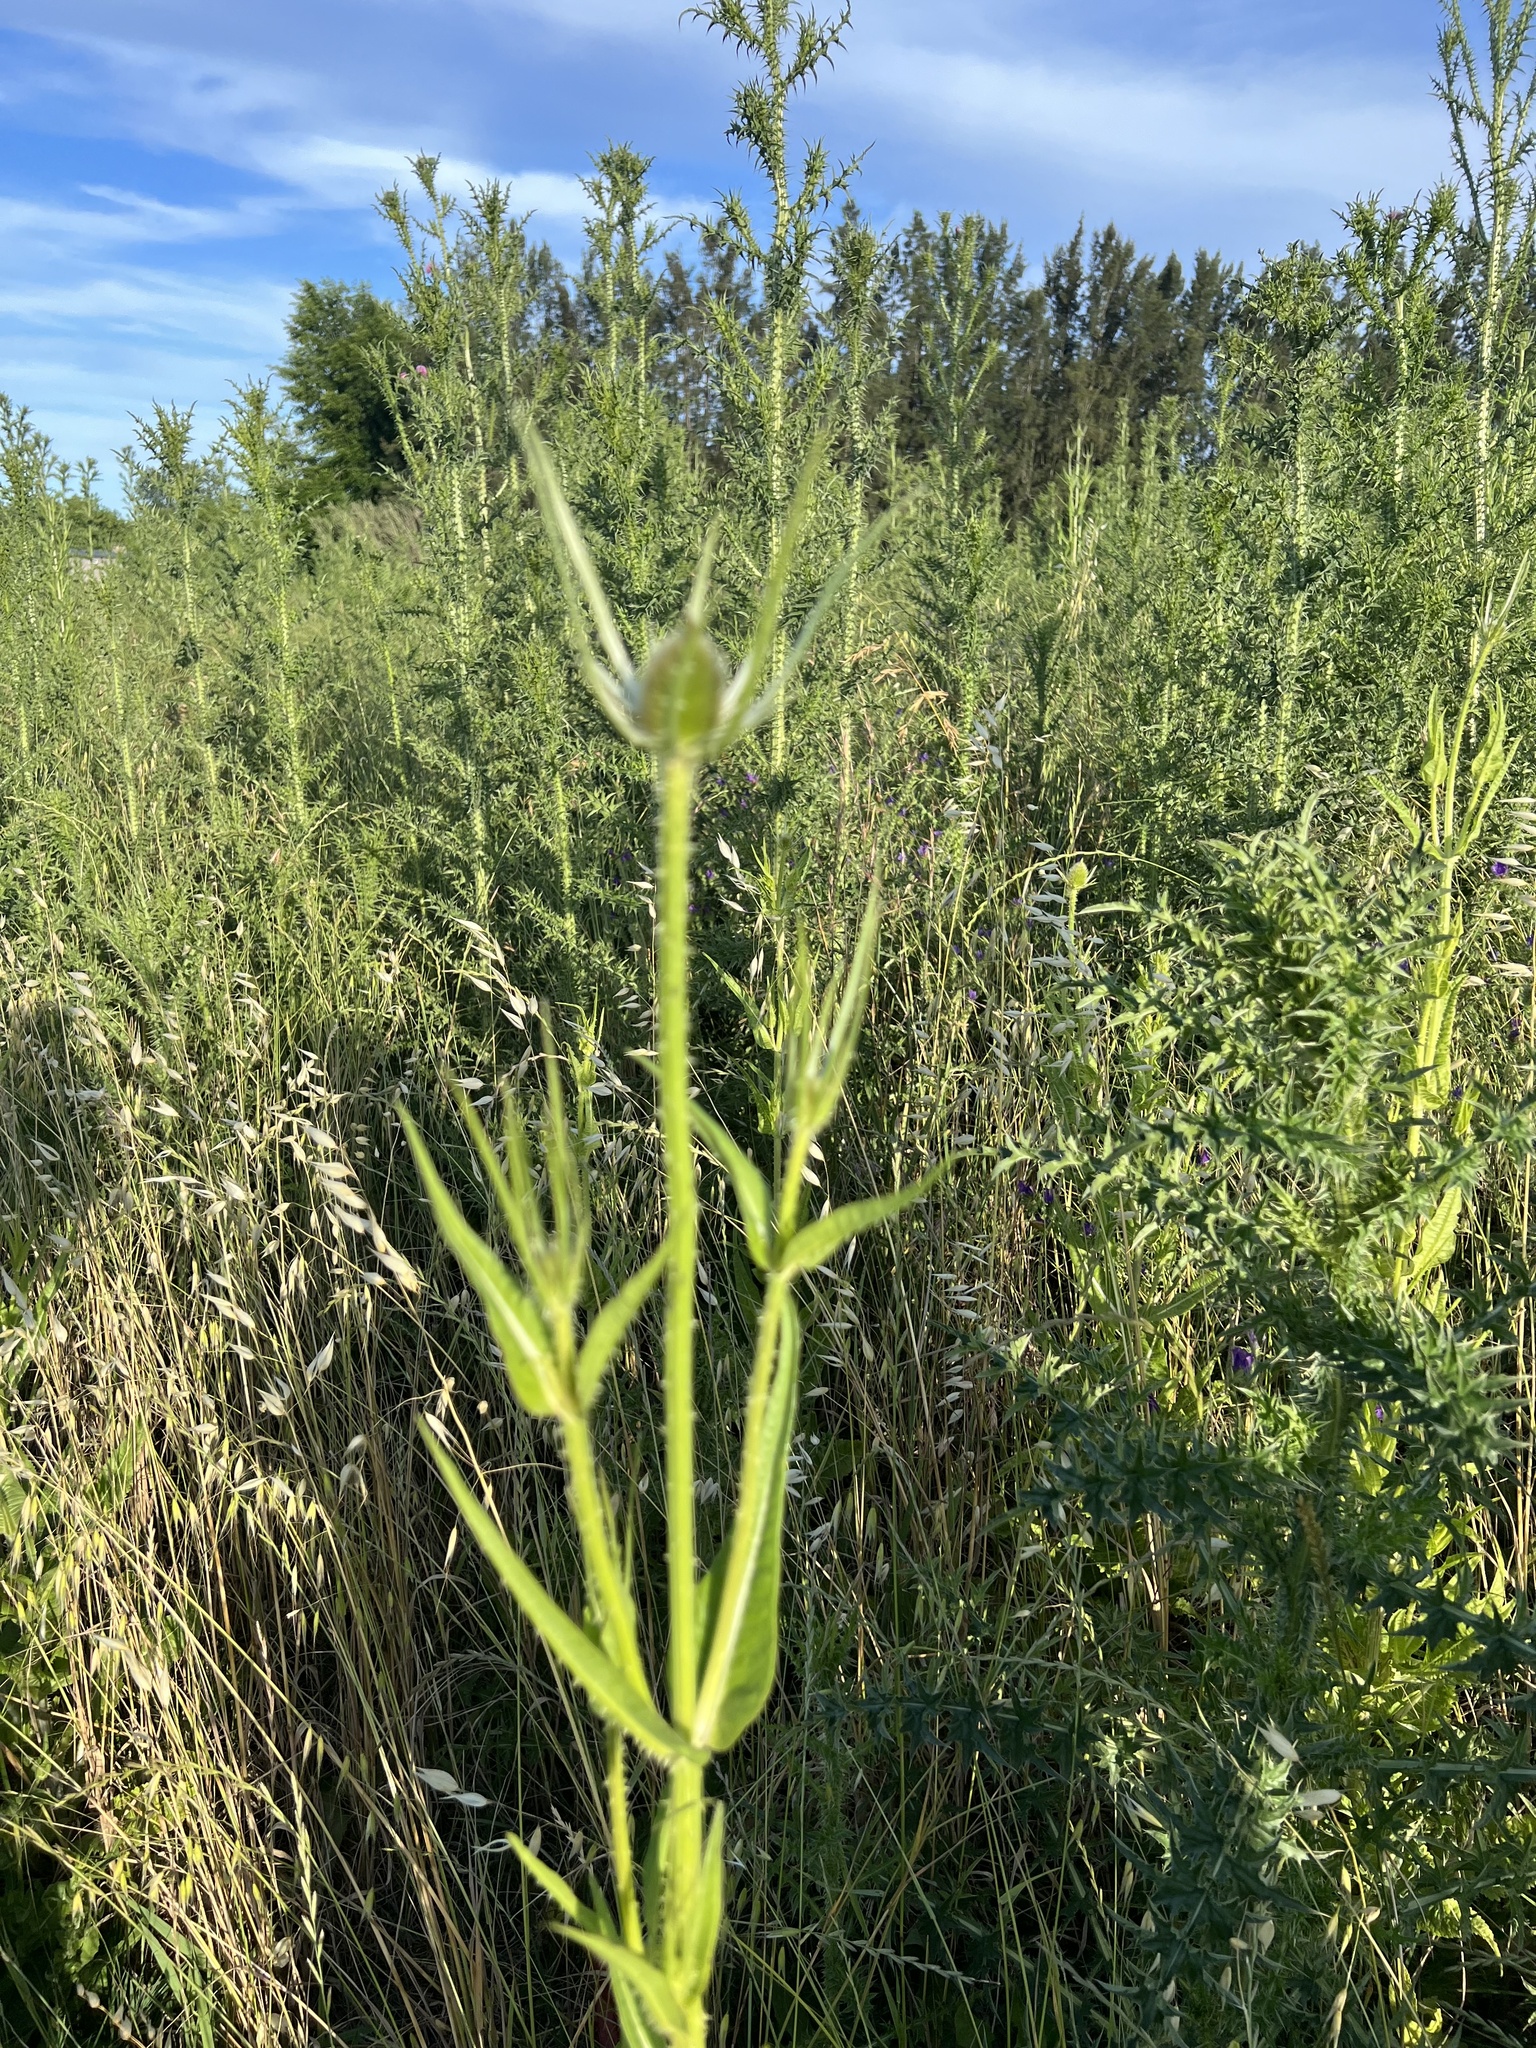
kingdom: Plantae
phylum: Tracheophyta
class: Magnoliopsida
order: Dipsacales
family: Caprifoliaceae
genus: Dipsacus
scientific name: Dipsacus fullonum
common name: Teasel
